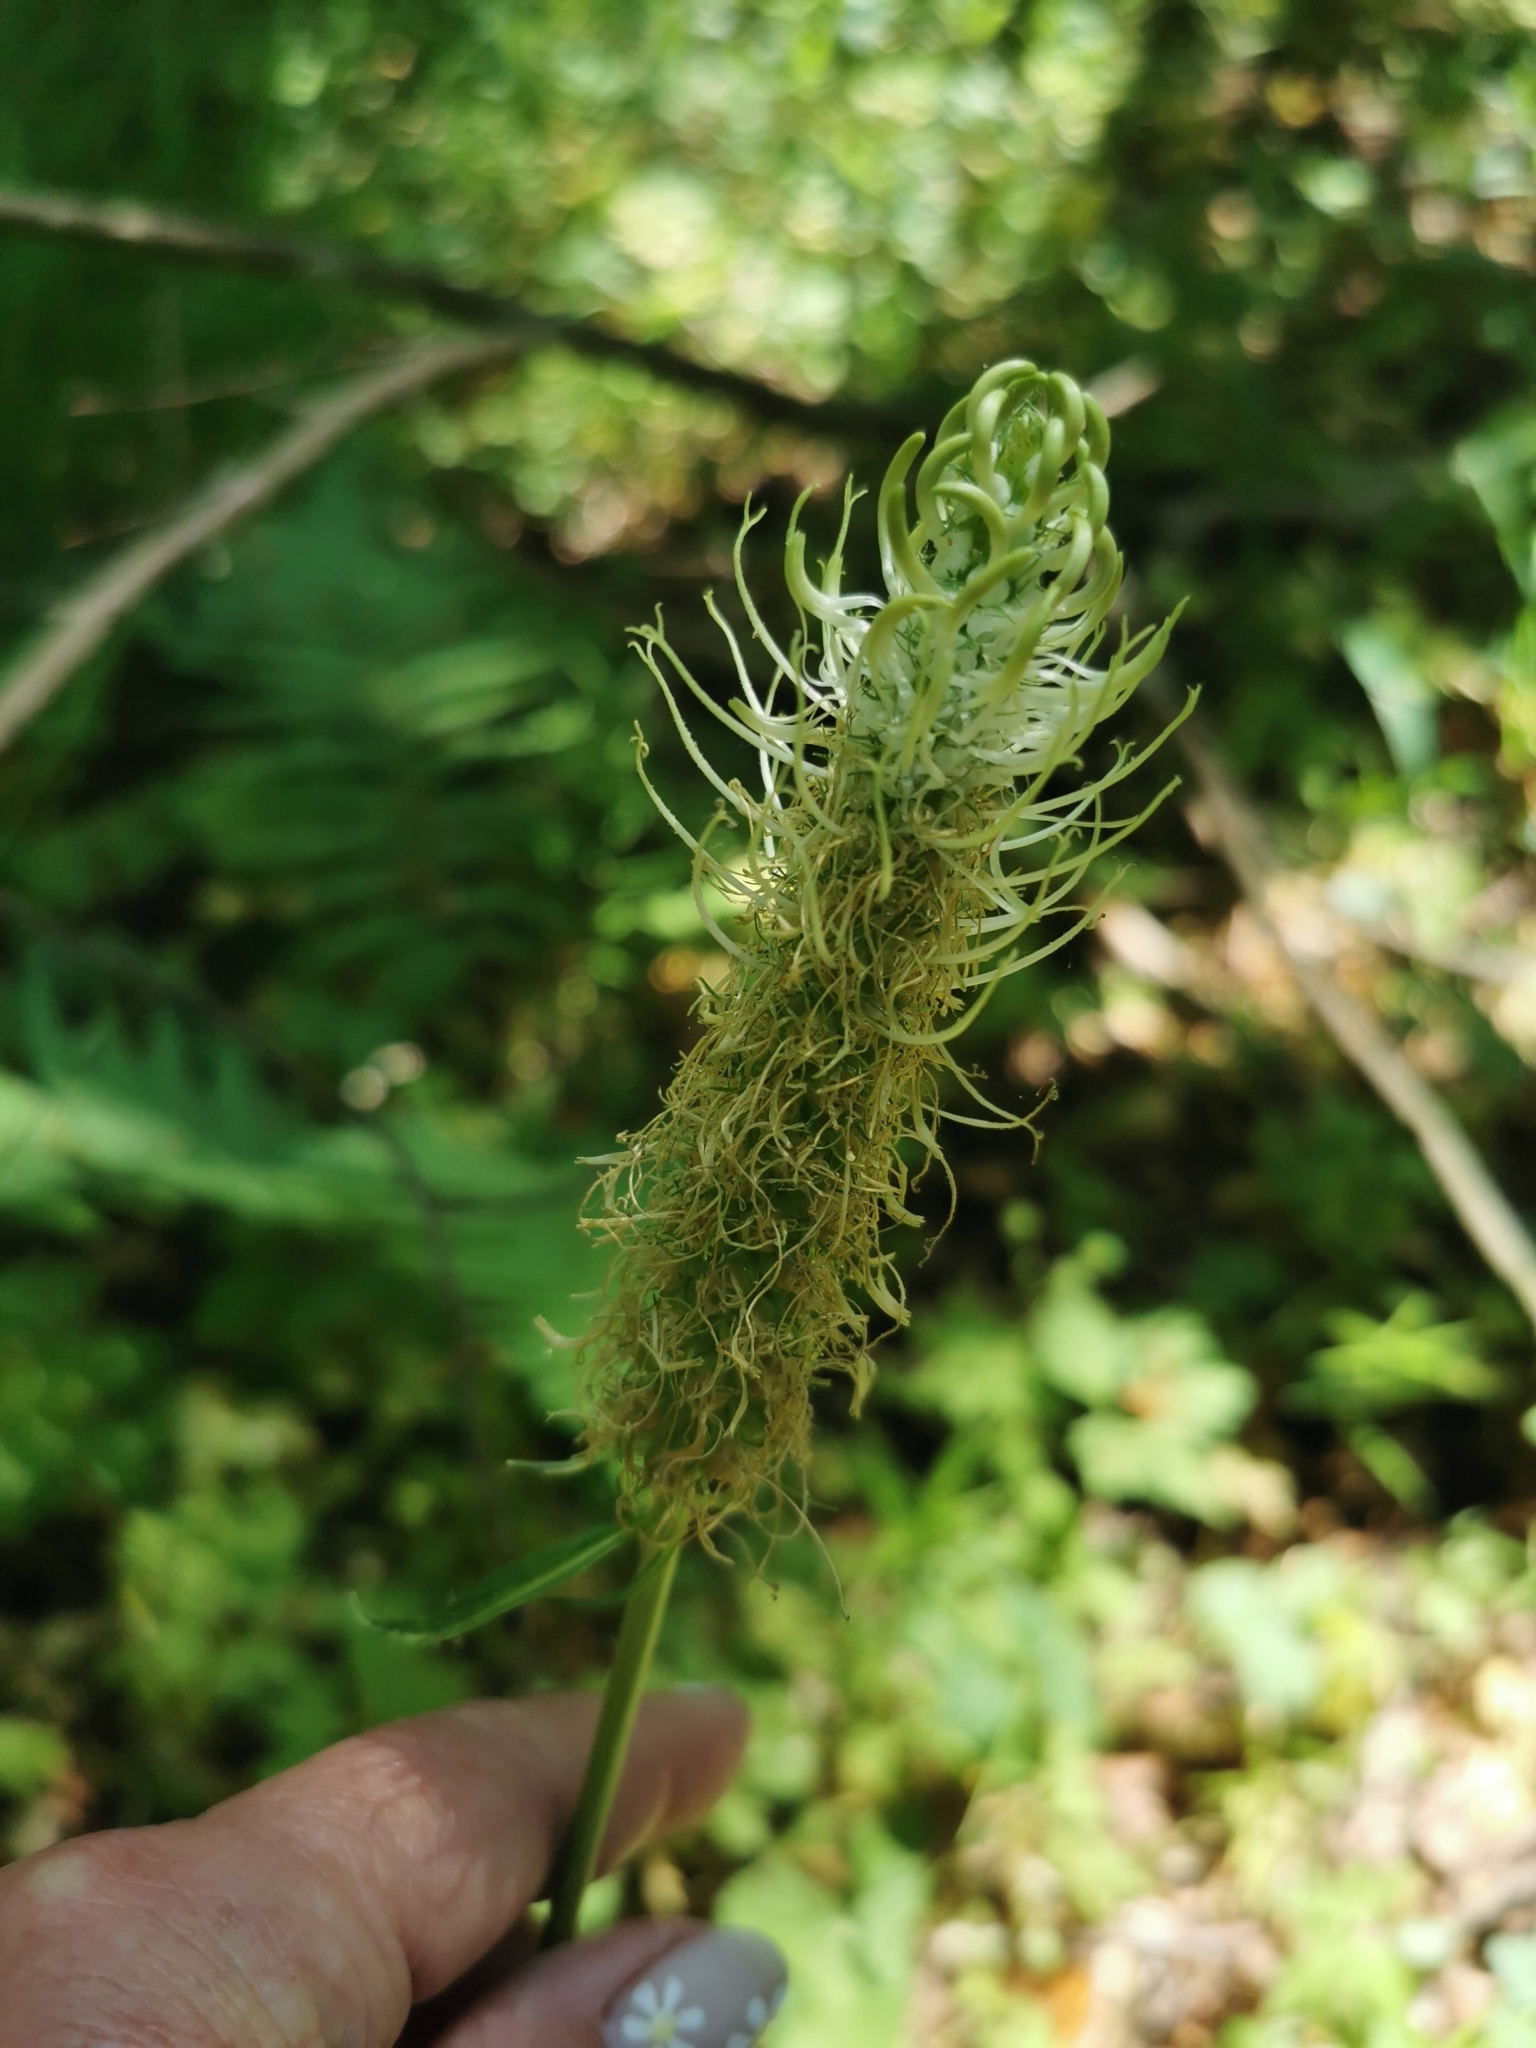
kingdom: Plantae
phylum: Tracheophyta
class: Magnoliopsida
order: Asterales
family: Campanulaceae
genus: Phyteuma
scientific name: Phyteuma spicatum
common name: Spiked rampion
